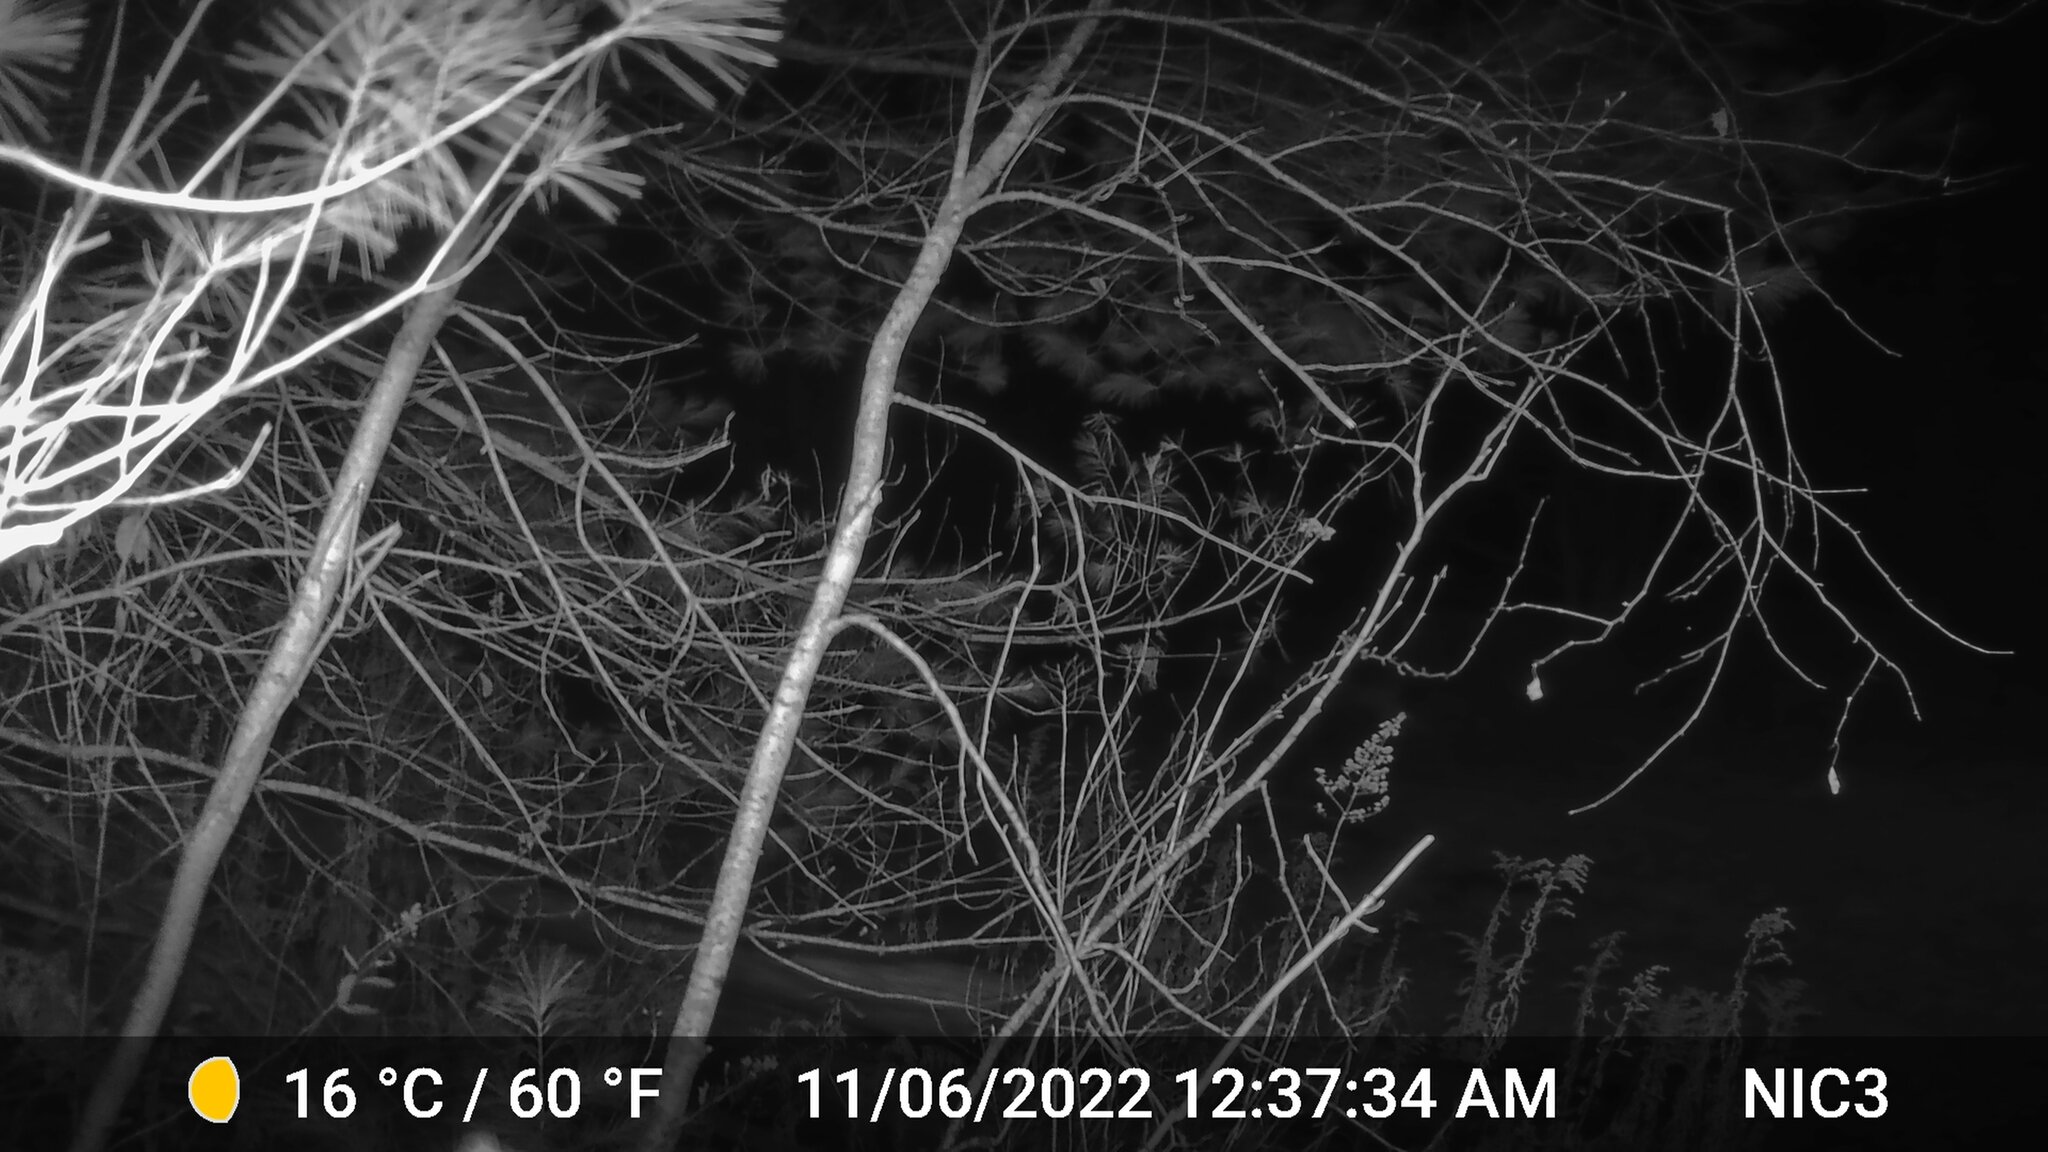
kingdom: Animalia
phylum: Chordata
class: Mammalia
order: Artiodactyla
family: Cervidae
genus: Odocoileus
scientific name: Odocoileus virginianus
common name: White-tailed deer
